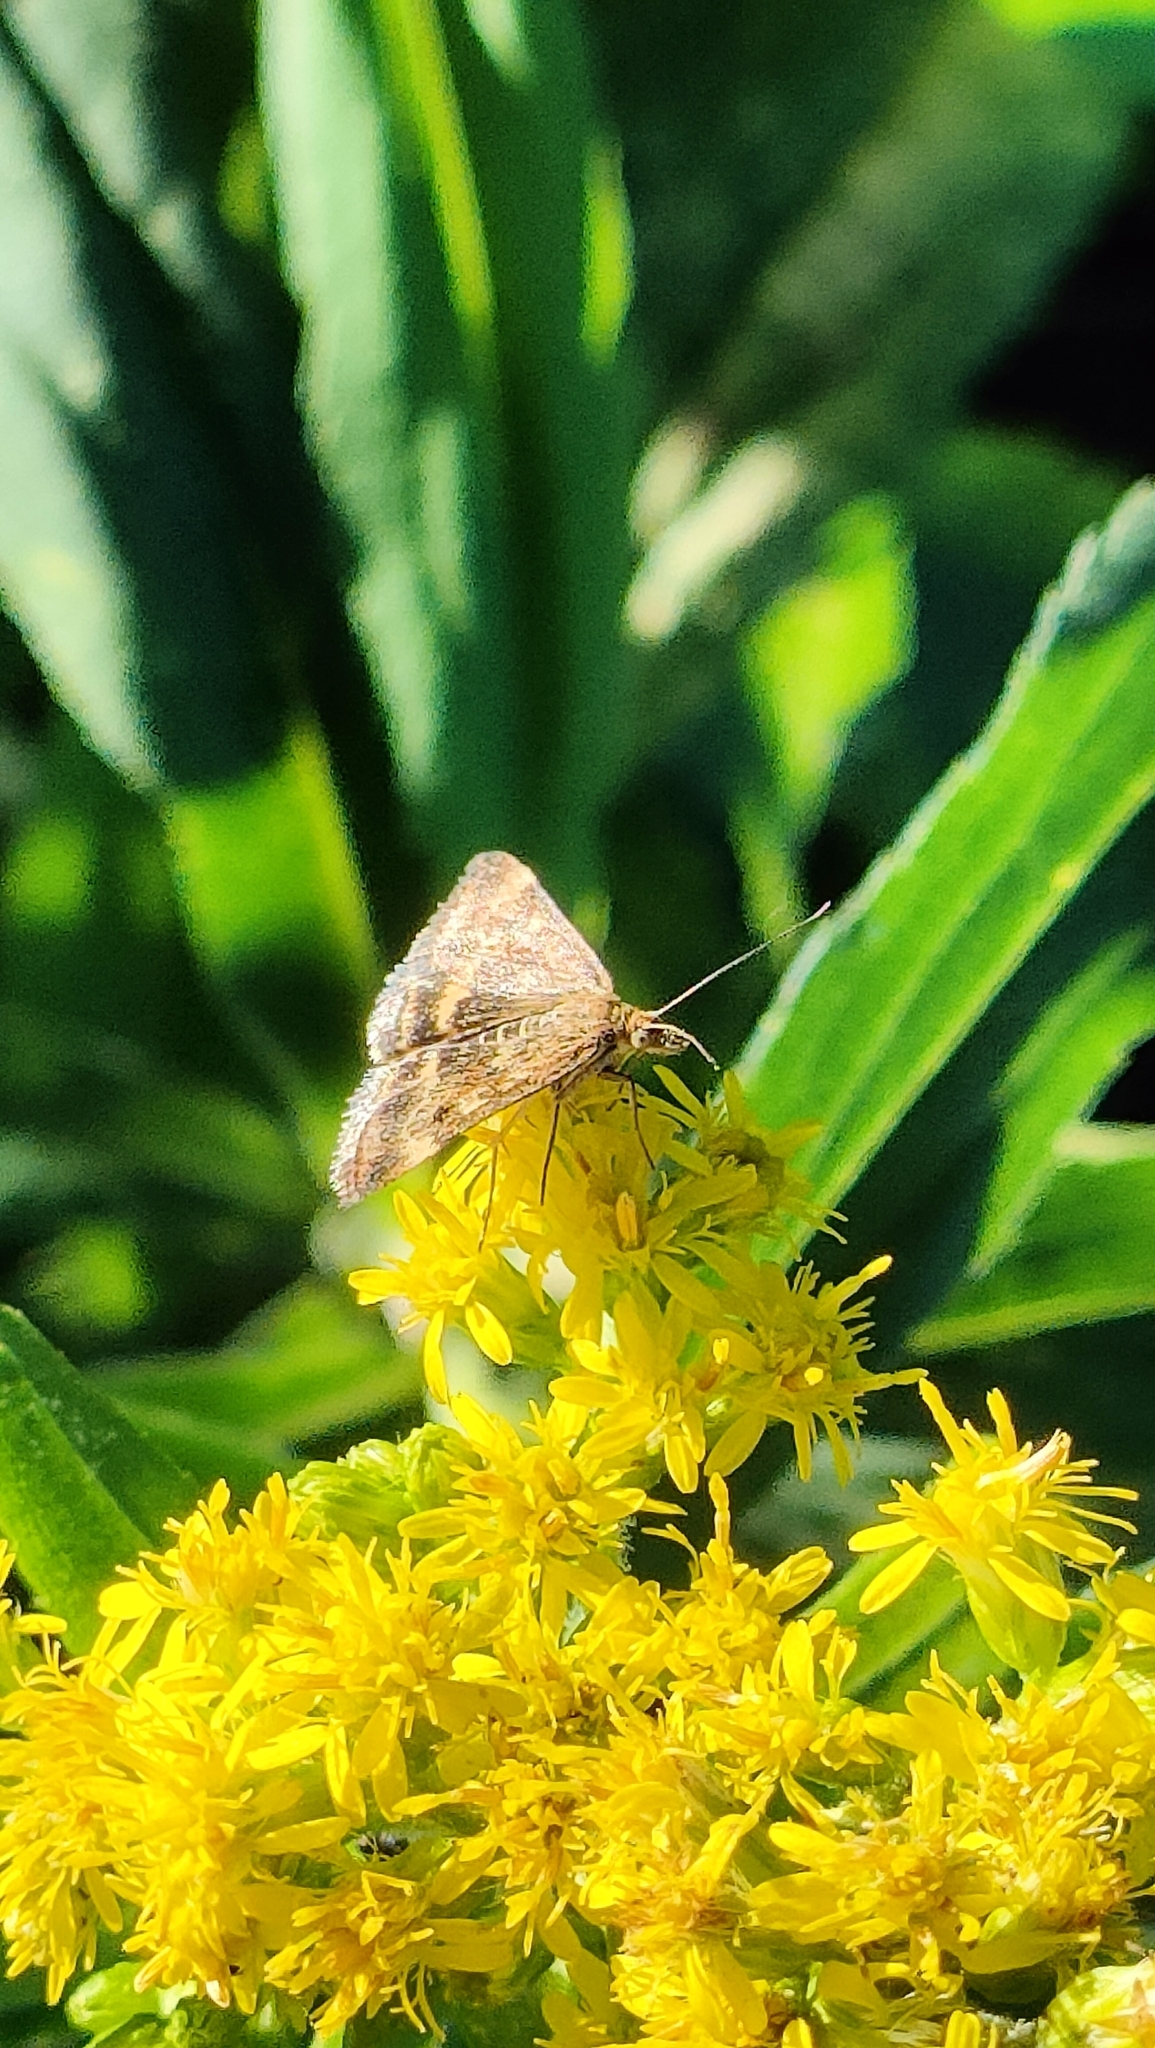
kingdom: Animalia
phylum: Arthropoda
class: Insecta
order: Lepidoptera
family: Crambidae
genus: Pyrausta
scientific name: Pyrausta despicata
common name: Straw-barred pearl
